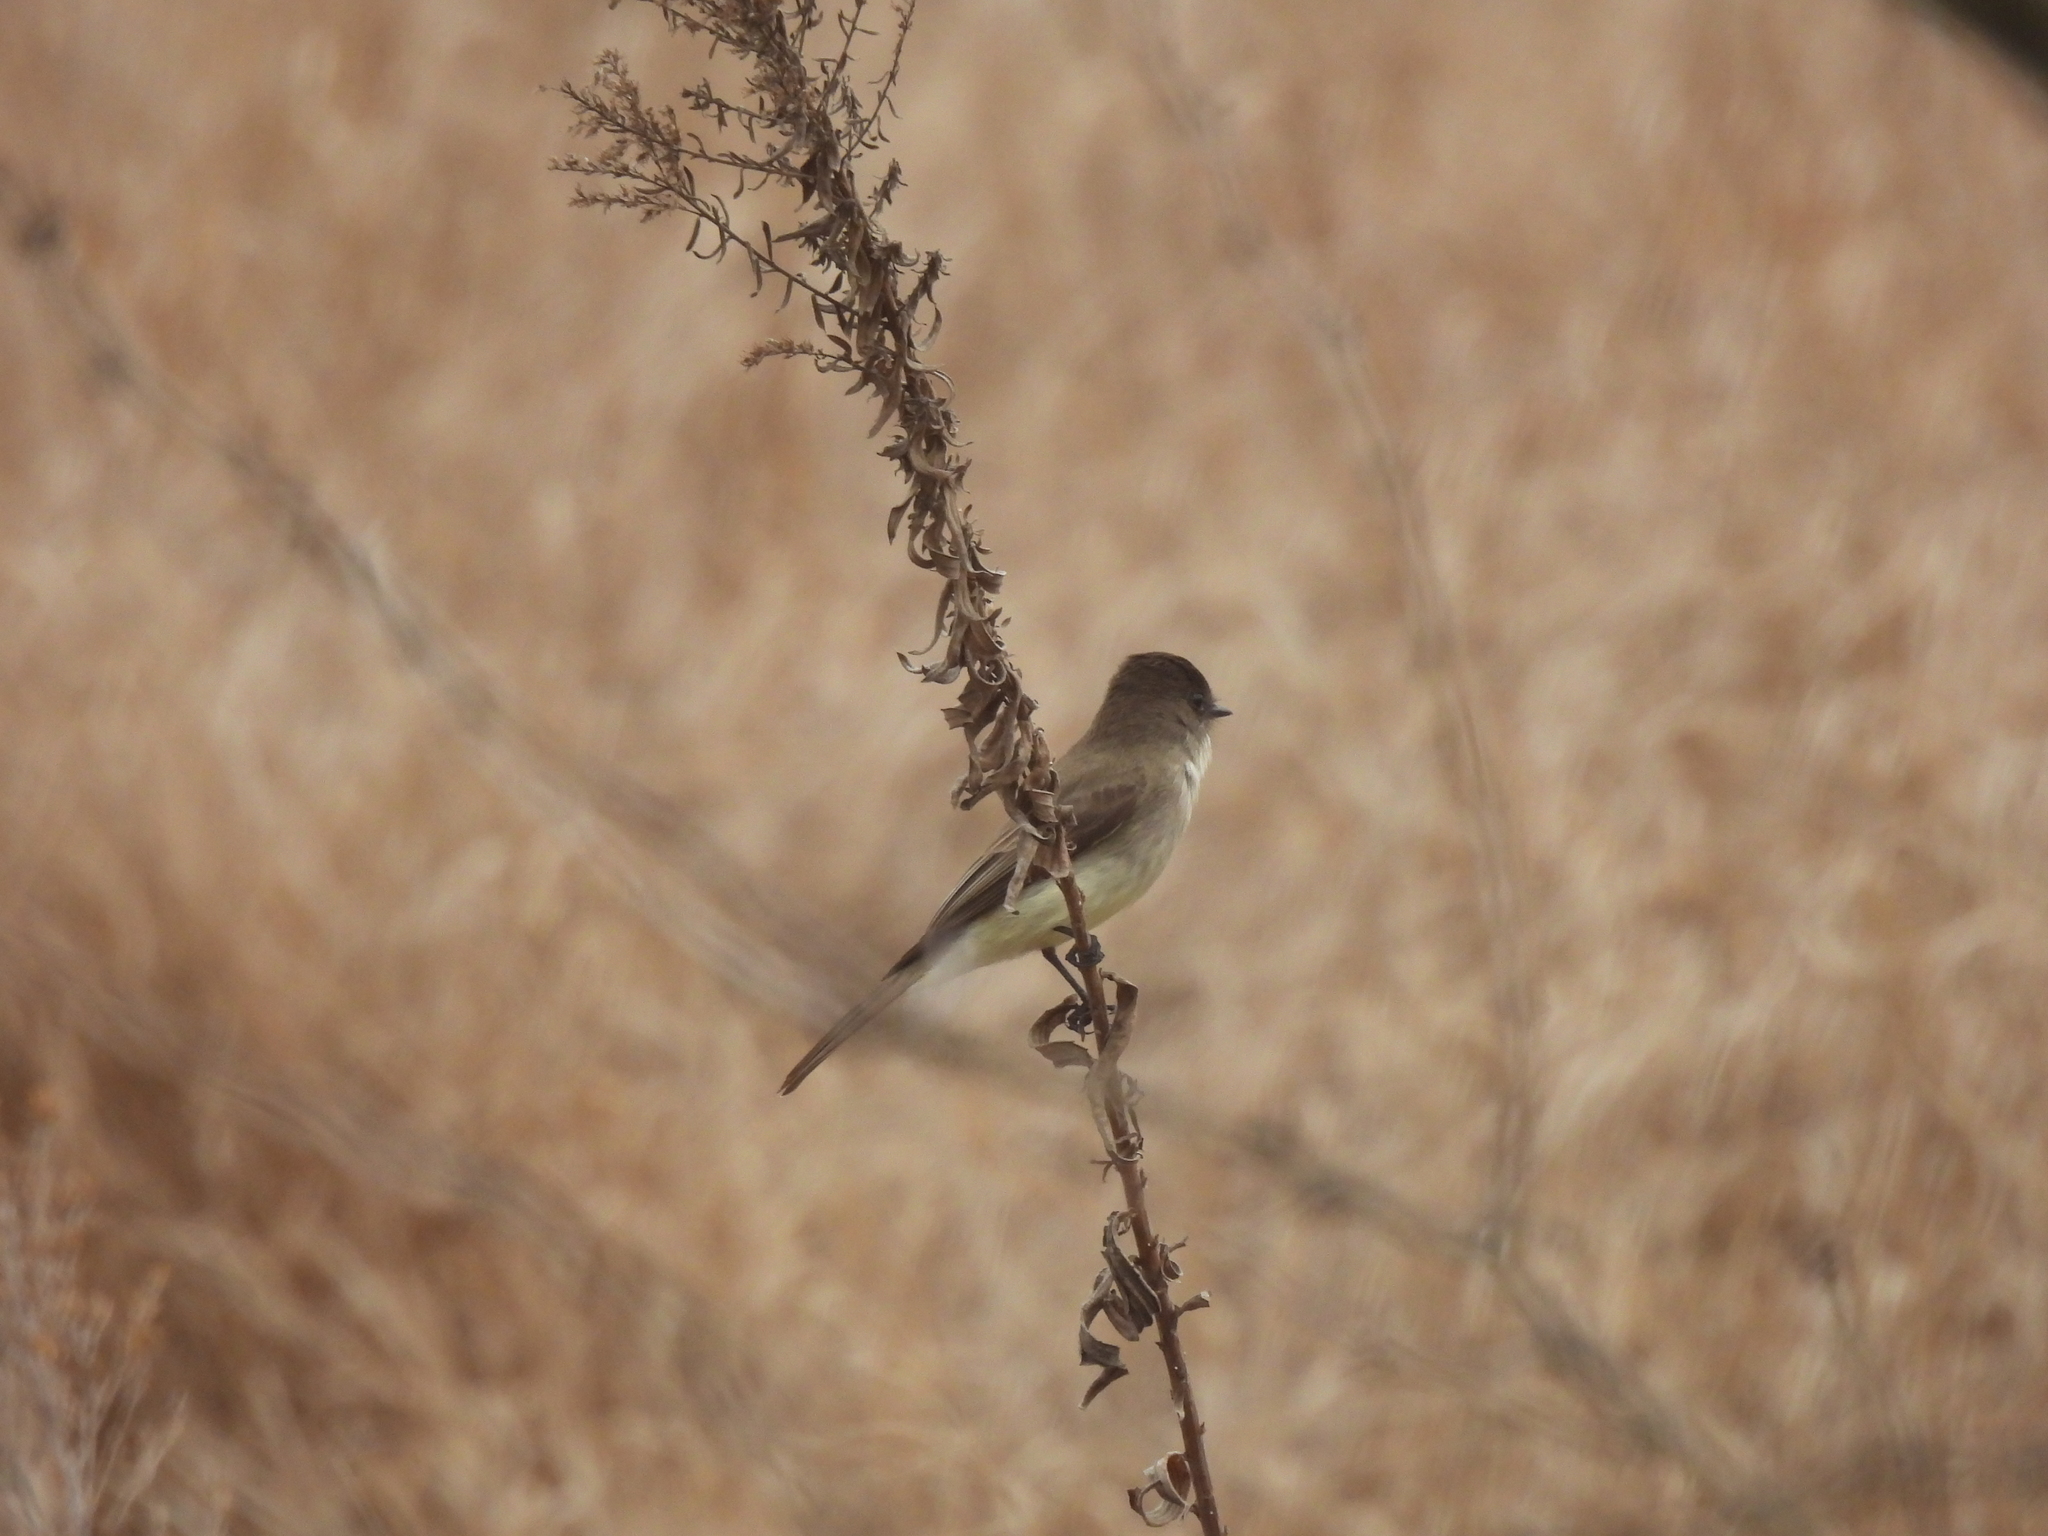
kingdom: Animalia
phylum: Chordata
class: Aves
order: Passeriformes
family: Tyrannidae
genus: Sayornis
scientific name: Sayornis phoebe
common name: Eastern phoebe
